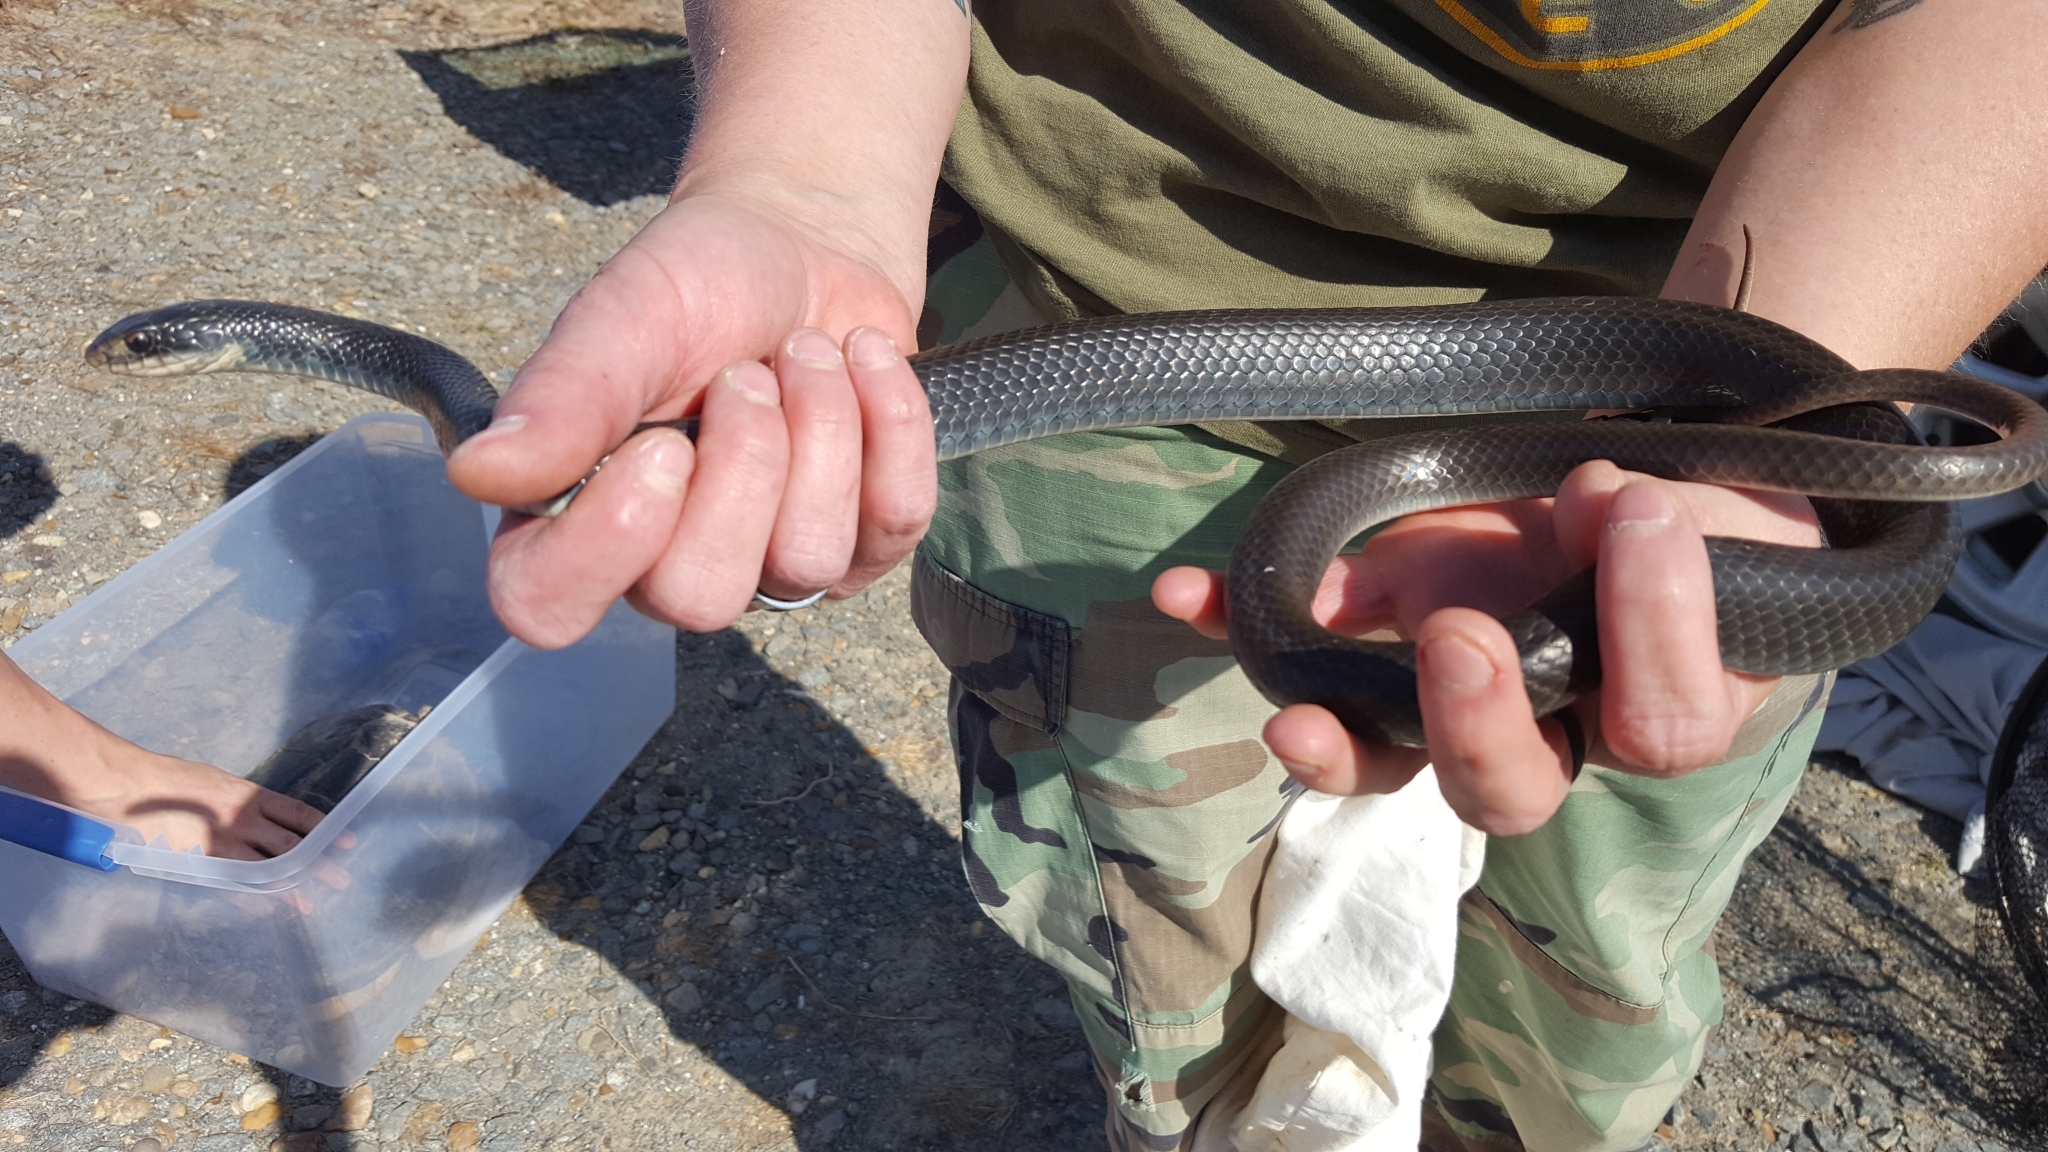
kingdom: Animalia
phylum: Chordata
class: Squamata
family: Colubridae
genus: Coluber
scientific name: Coluber constrictor
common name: Eastern racer
